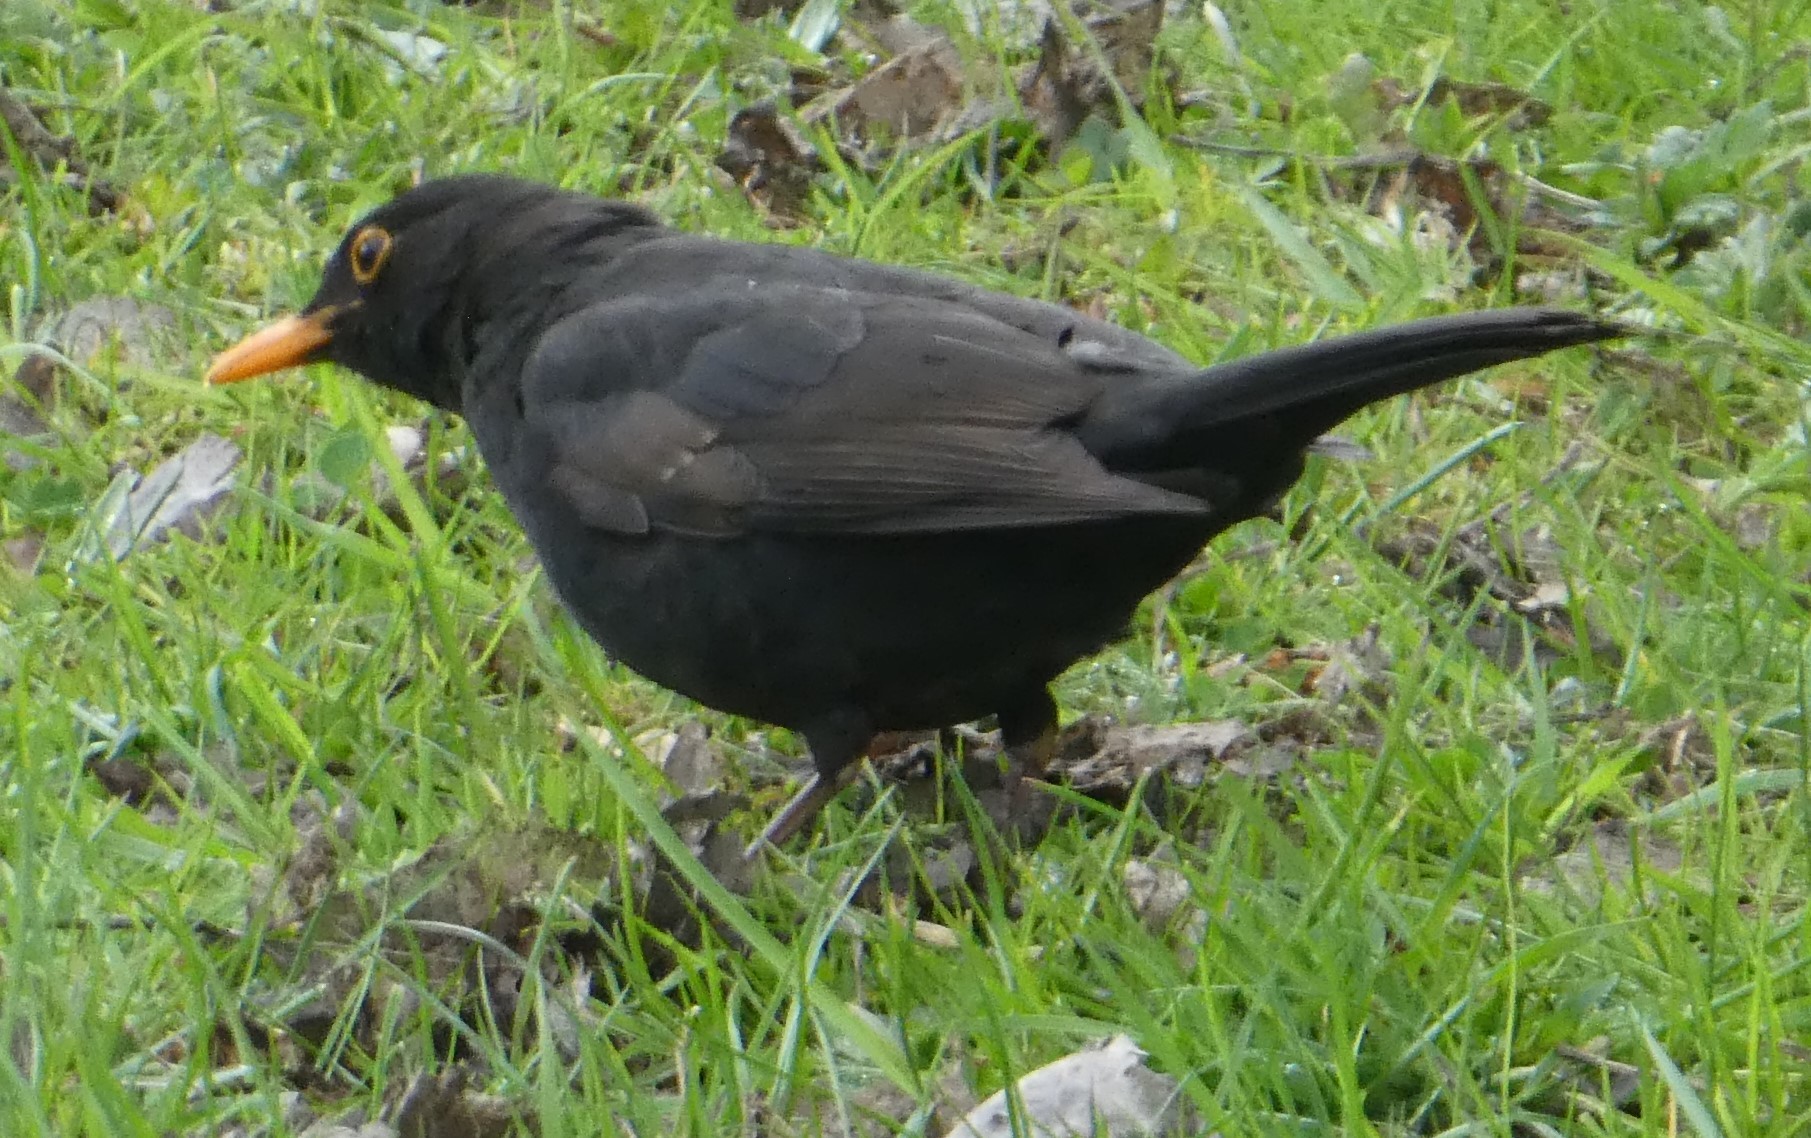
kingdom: Animalia
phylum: Chordata
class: Aves
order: Passeriformes
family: Turdidae
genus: Turdus
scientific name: Turdus merula
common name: Common blackbird
